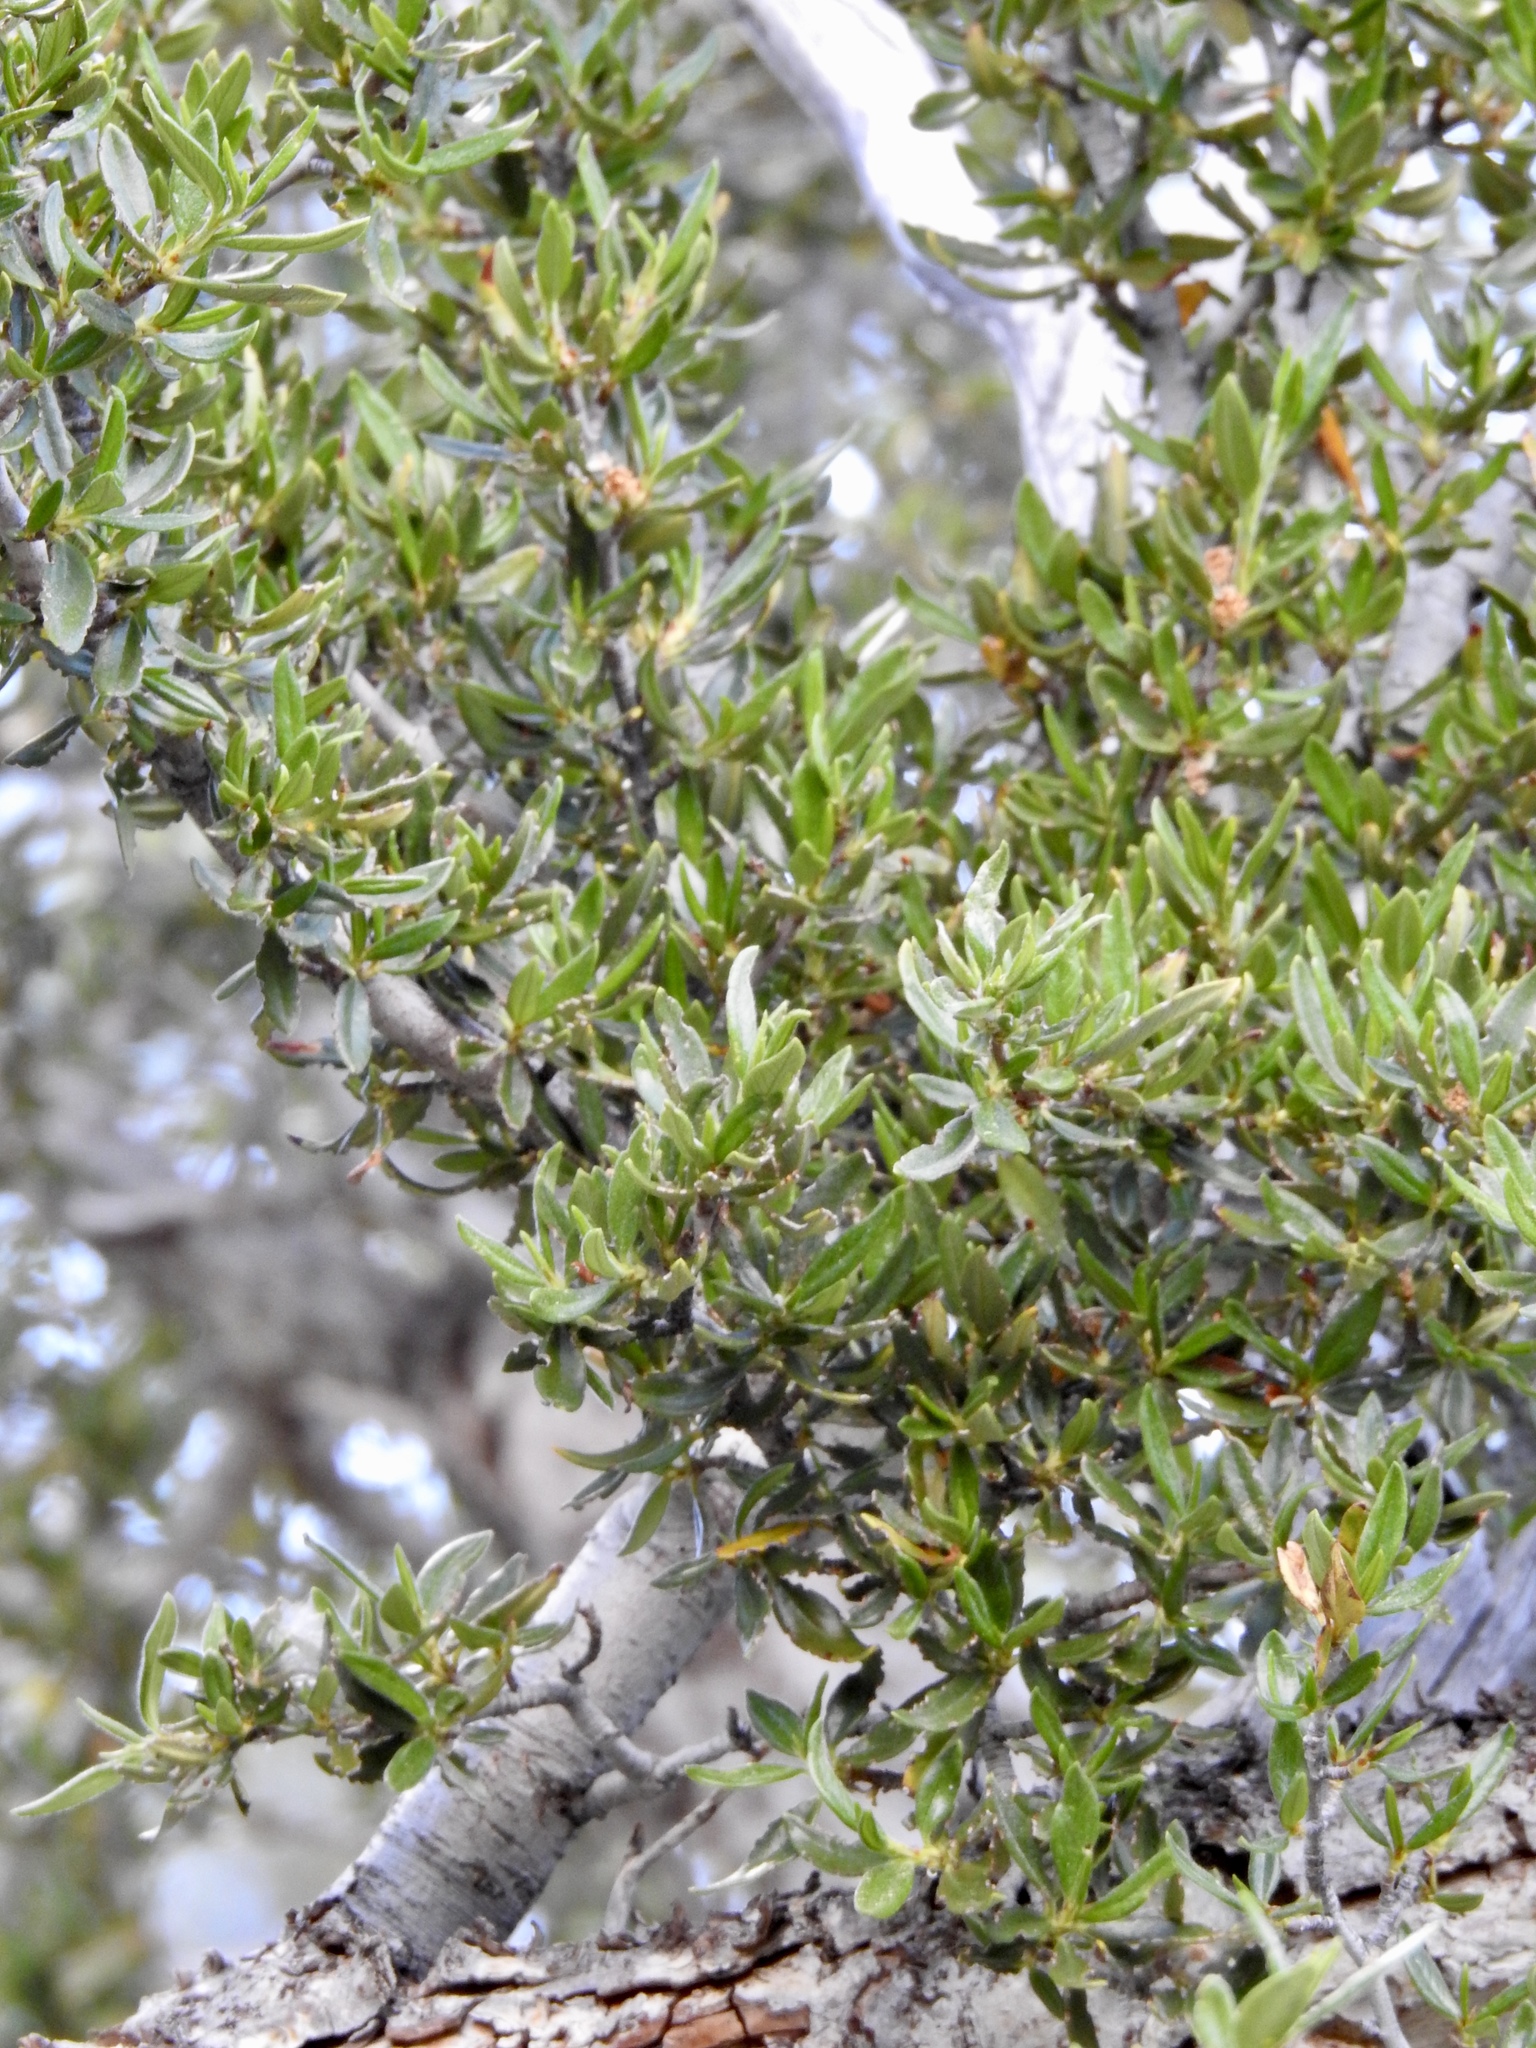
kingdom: Plantae
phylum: Tracheophyta
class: Magnoliopsida
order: Rosales
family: Rosaceae
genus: Cercocarpus
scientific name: Cercocarpus ledifolius
